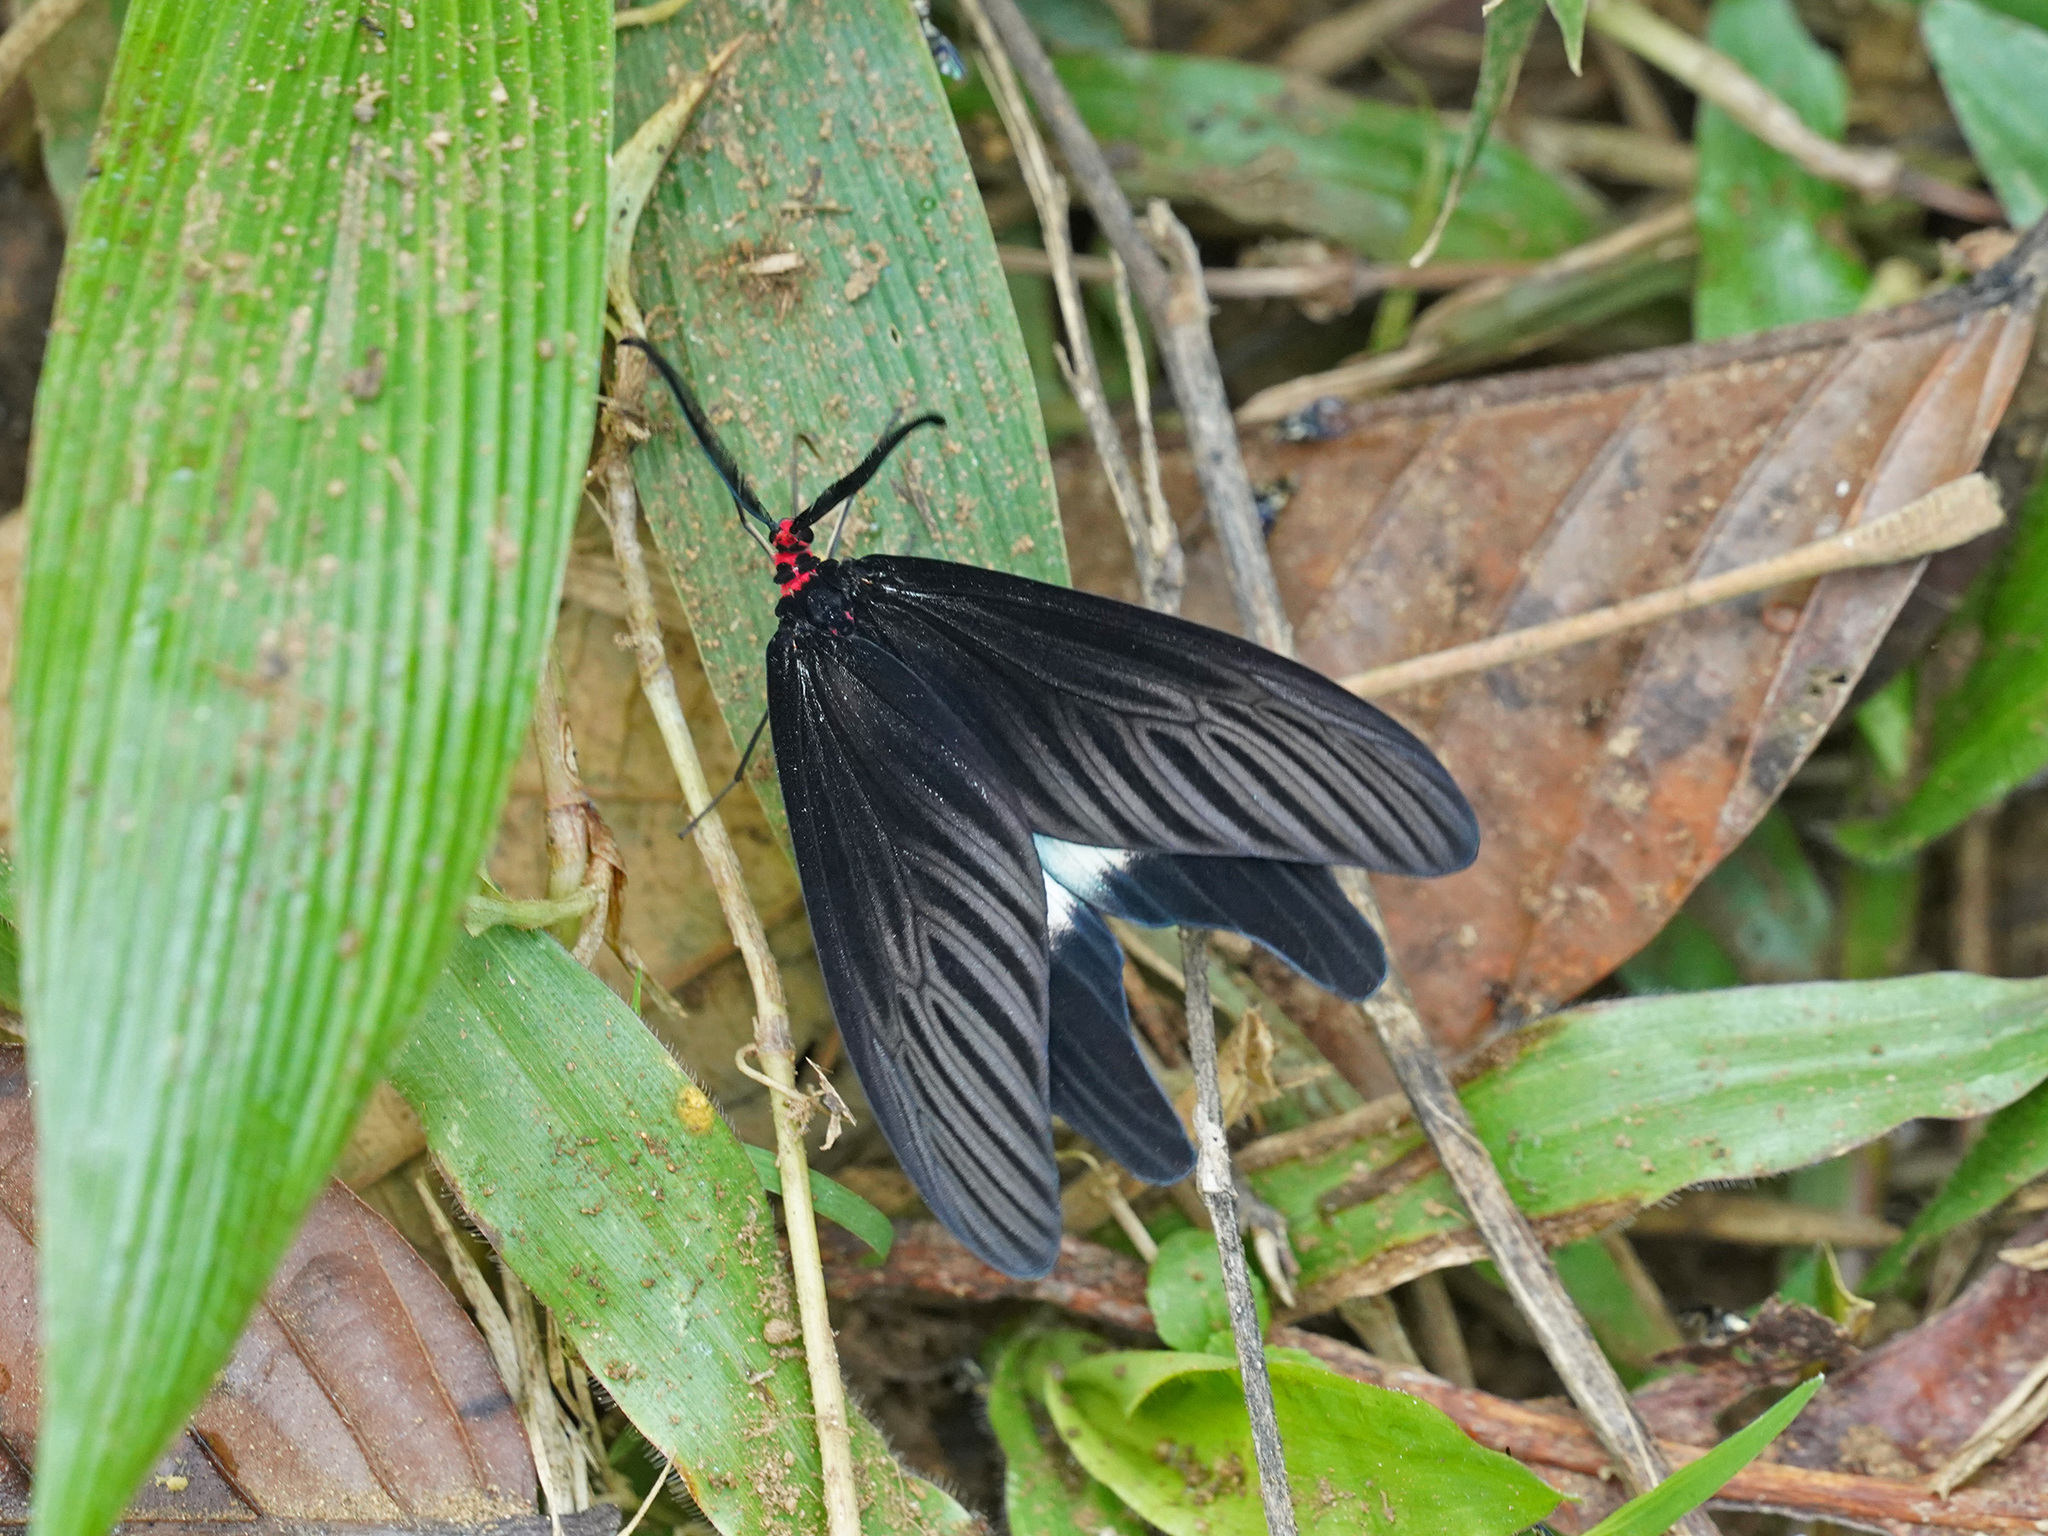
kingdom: Animalia
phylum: Arthropoda
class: Insecta
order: Lepidoptera
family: Zygaenidae
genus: Histia
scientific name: Histia flabellicornis
